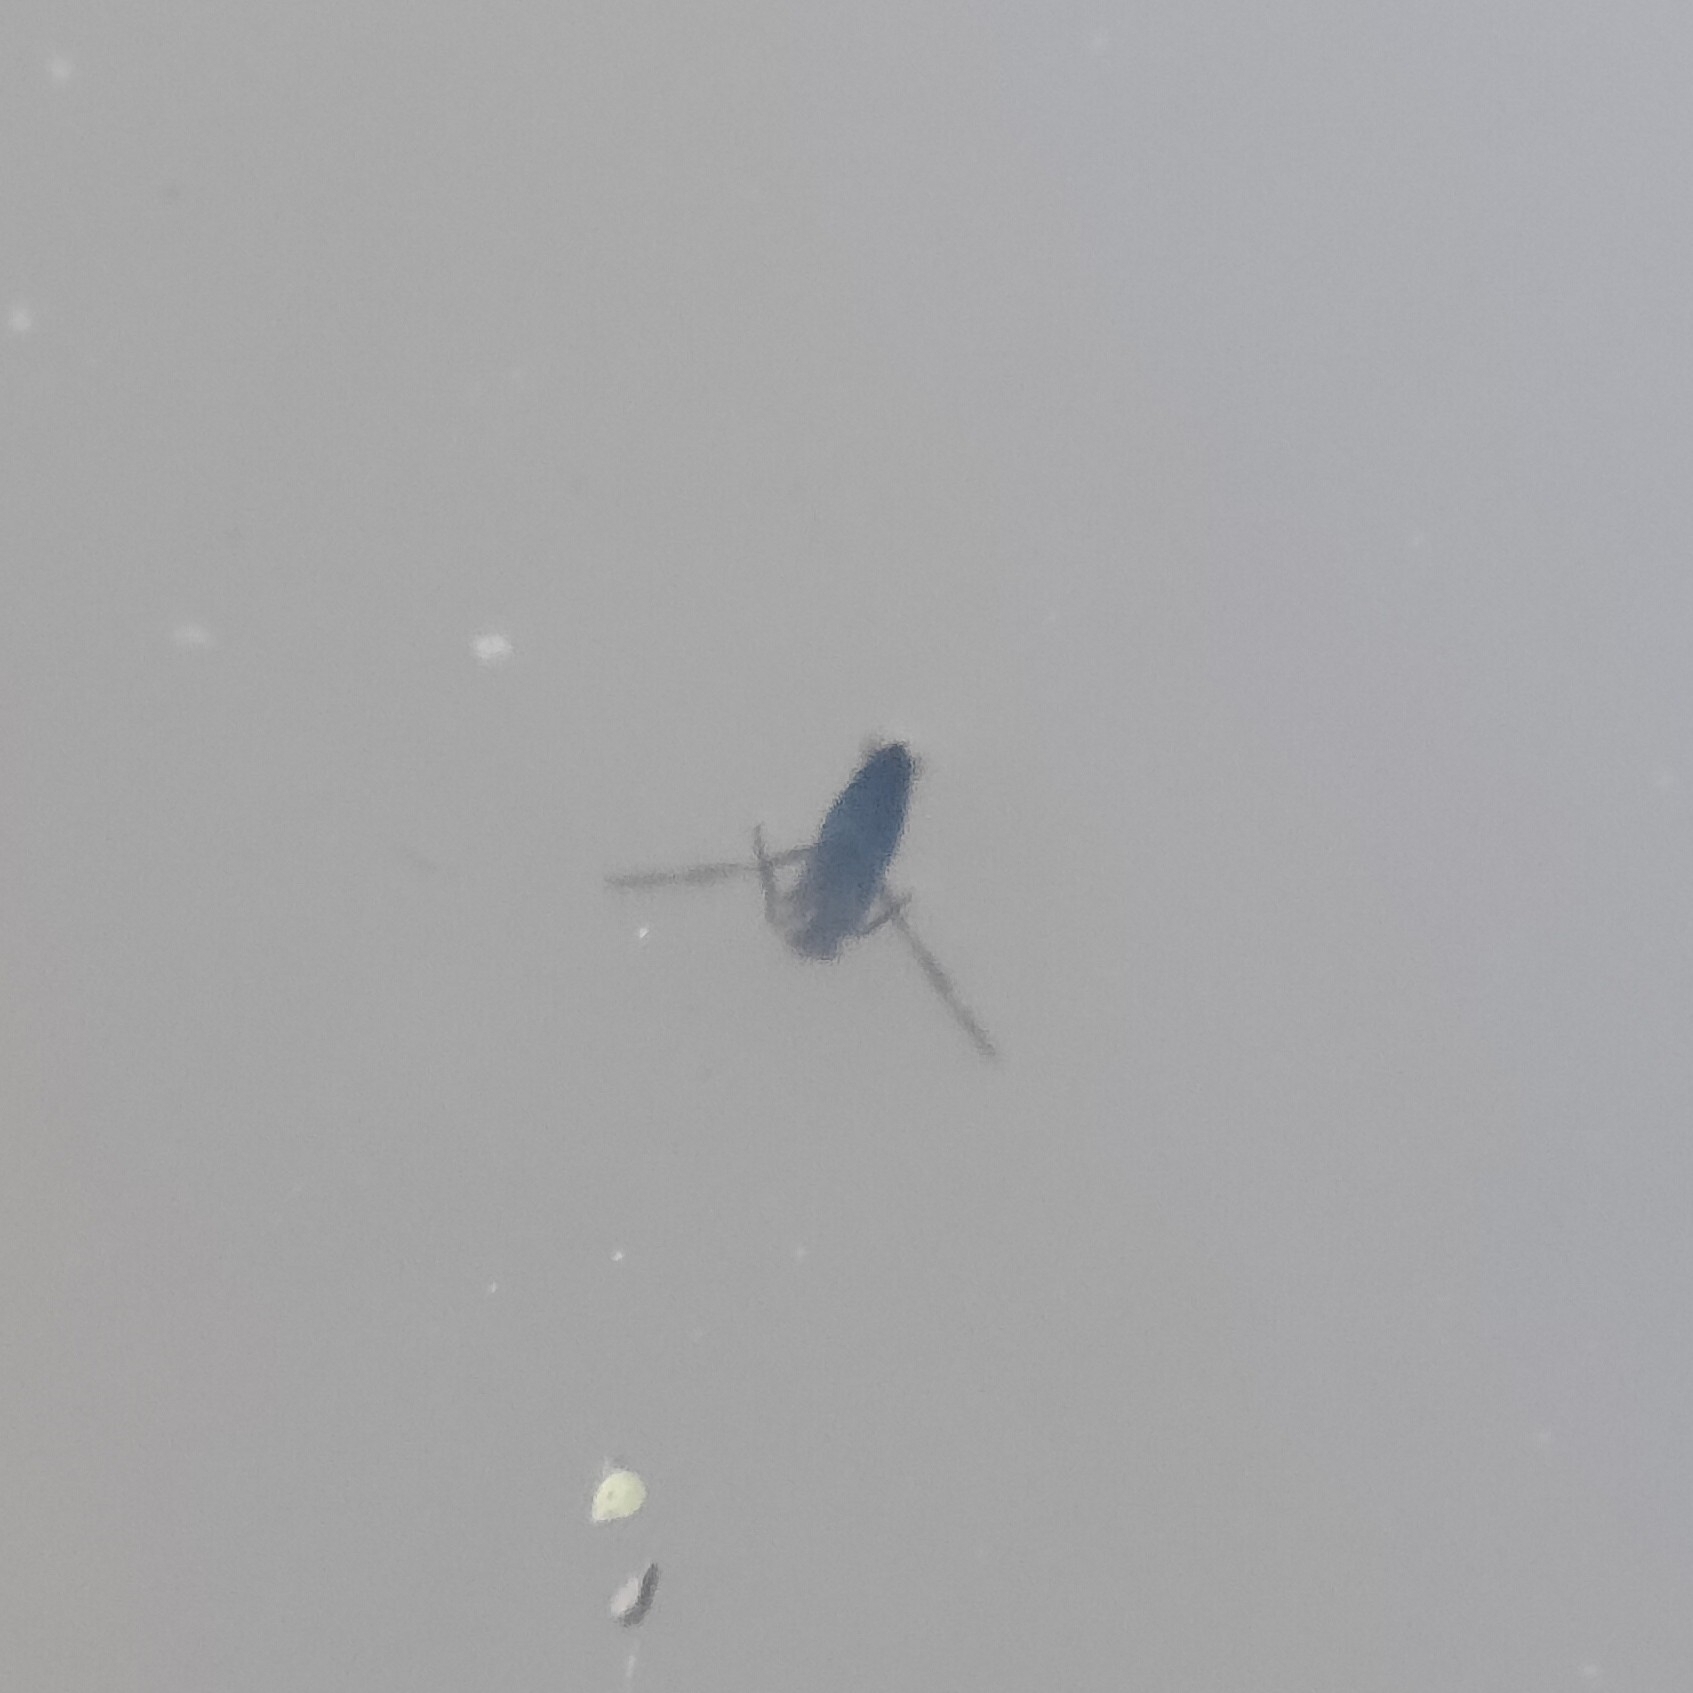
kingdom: Animalia
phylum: Arthropoda
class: Insecta
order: Hemiptera
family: Notonectidae
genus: Notonecta
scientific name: Notonecta
